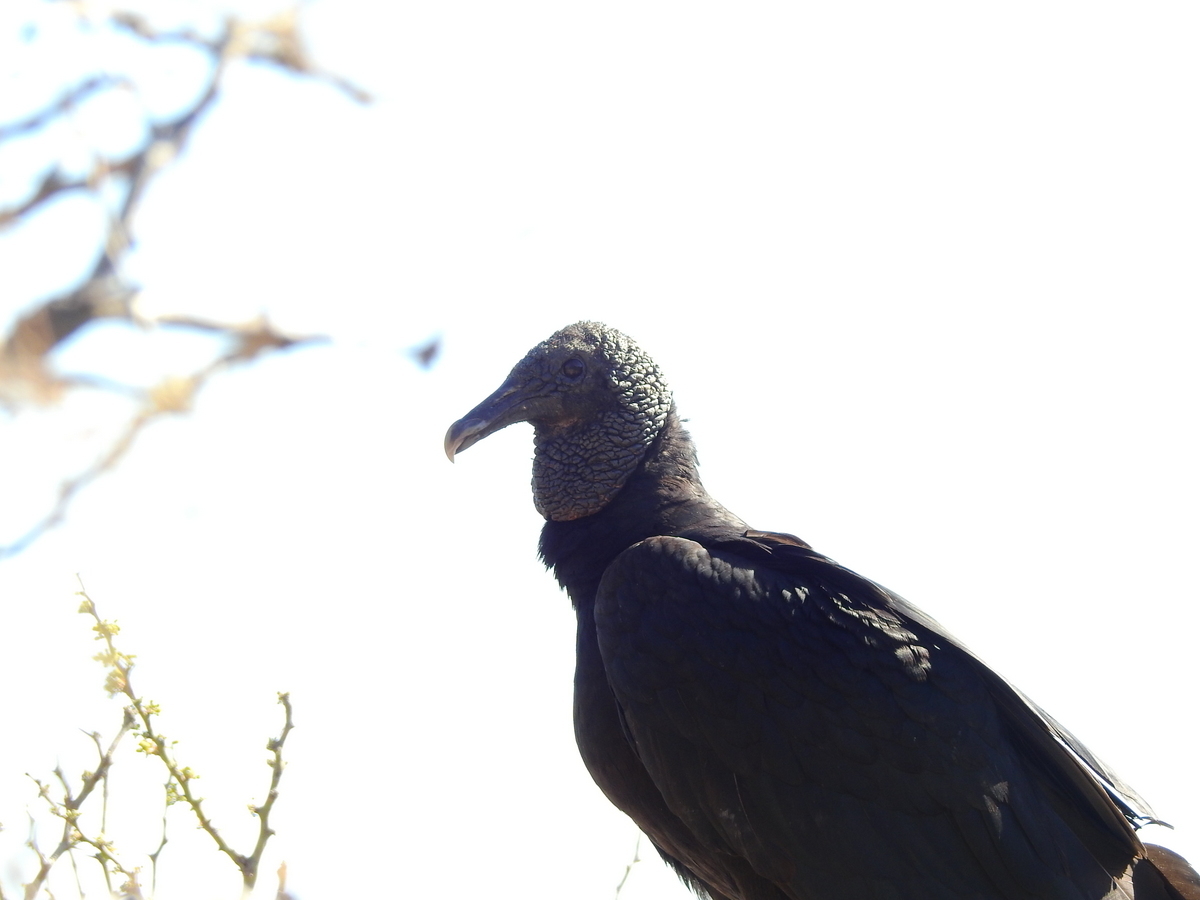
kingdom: Animalia
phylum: Chordata
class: Aves
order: Accipitriformes
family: Cathartidae
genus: Coragyps
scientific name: Coragyps atratus
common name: Black vulture
